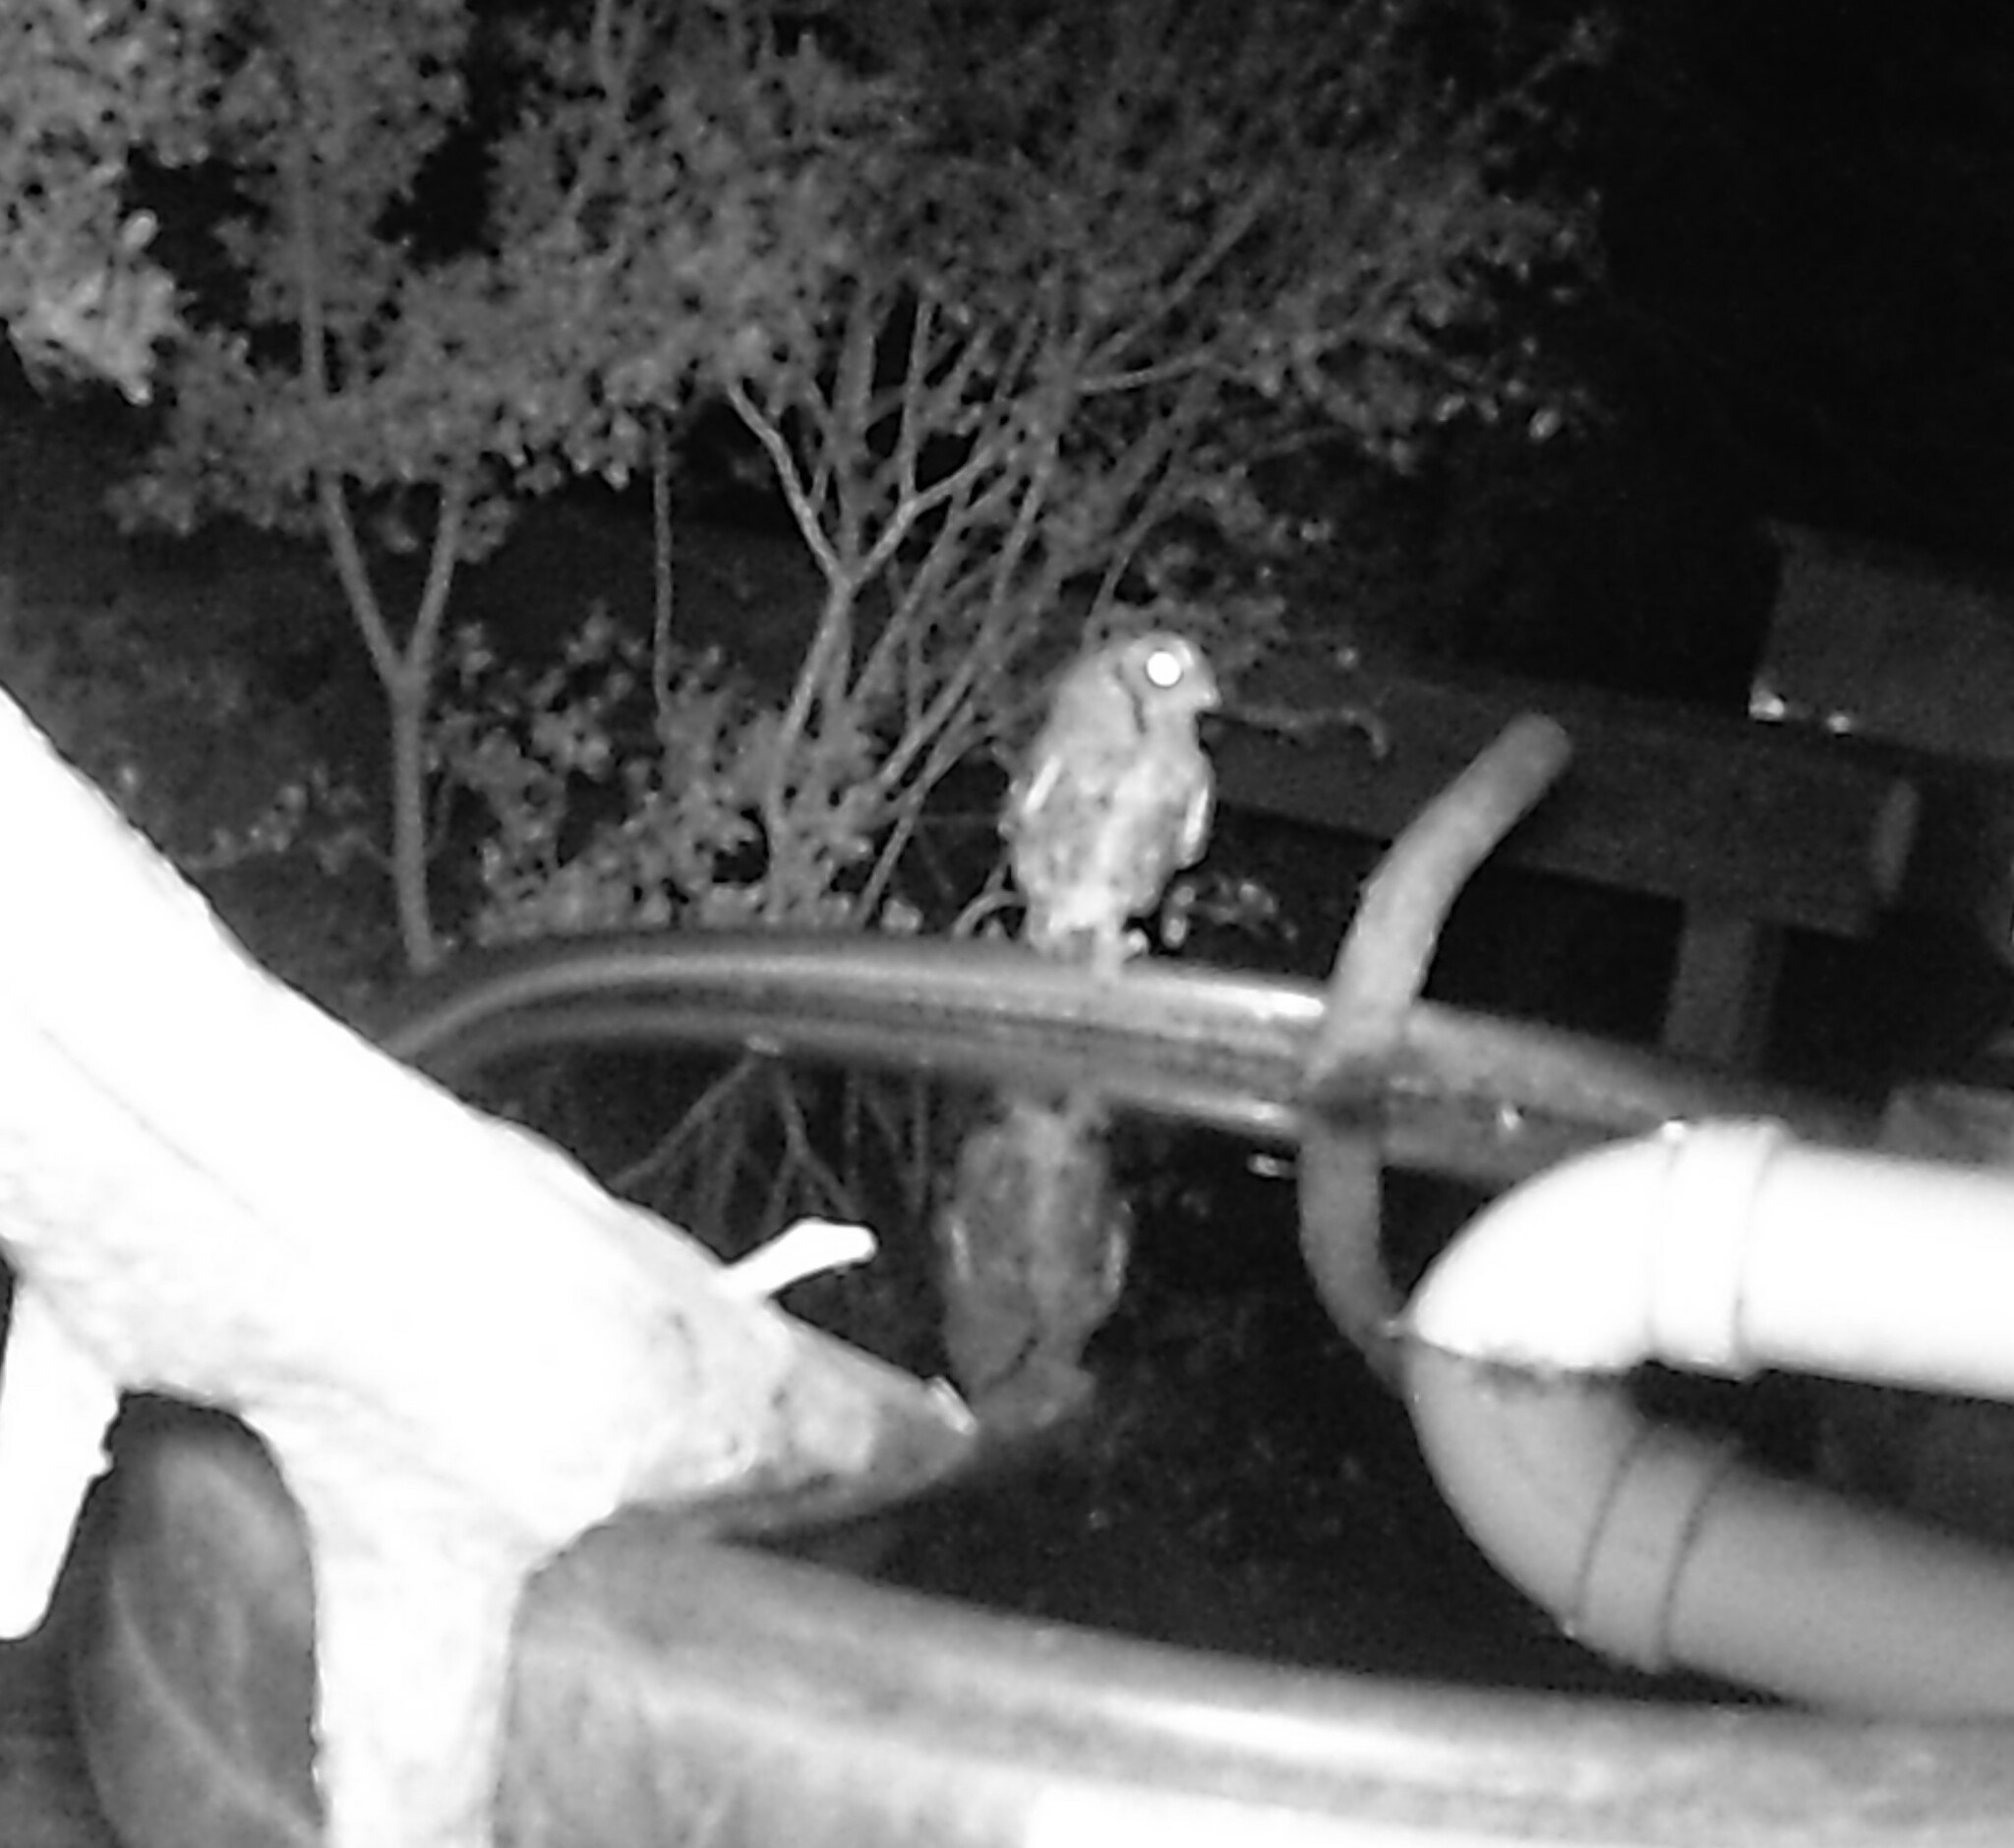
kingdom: Animalia
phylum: Chordata
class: Aves
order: Strigiformes
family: Strigidae
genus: Megascops
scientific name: Megascops asio
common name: Eastern screech-owl
